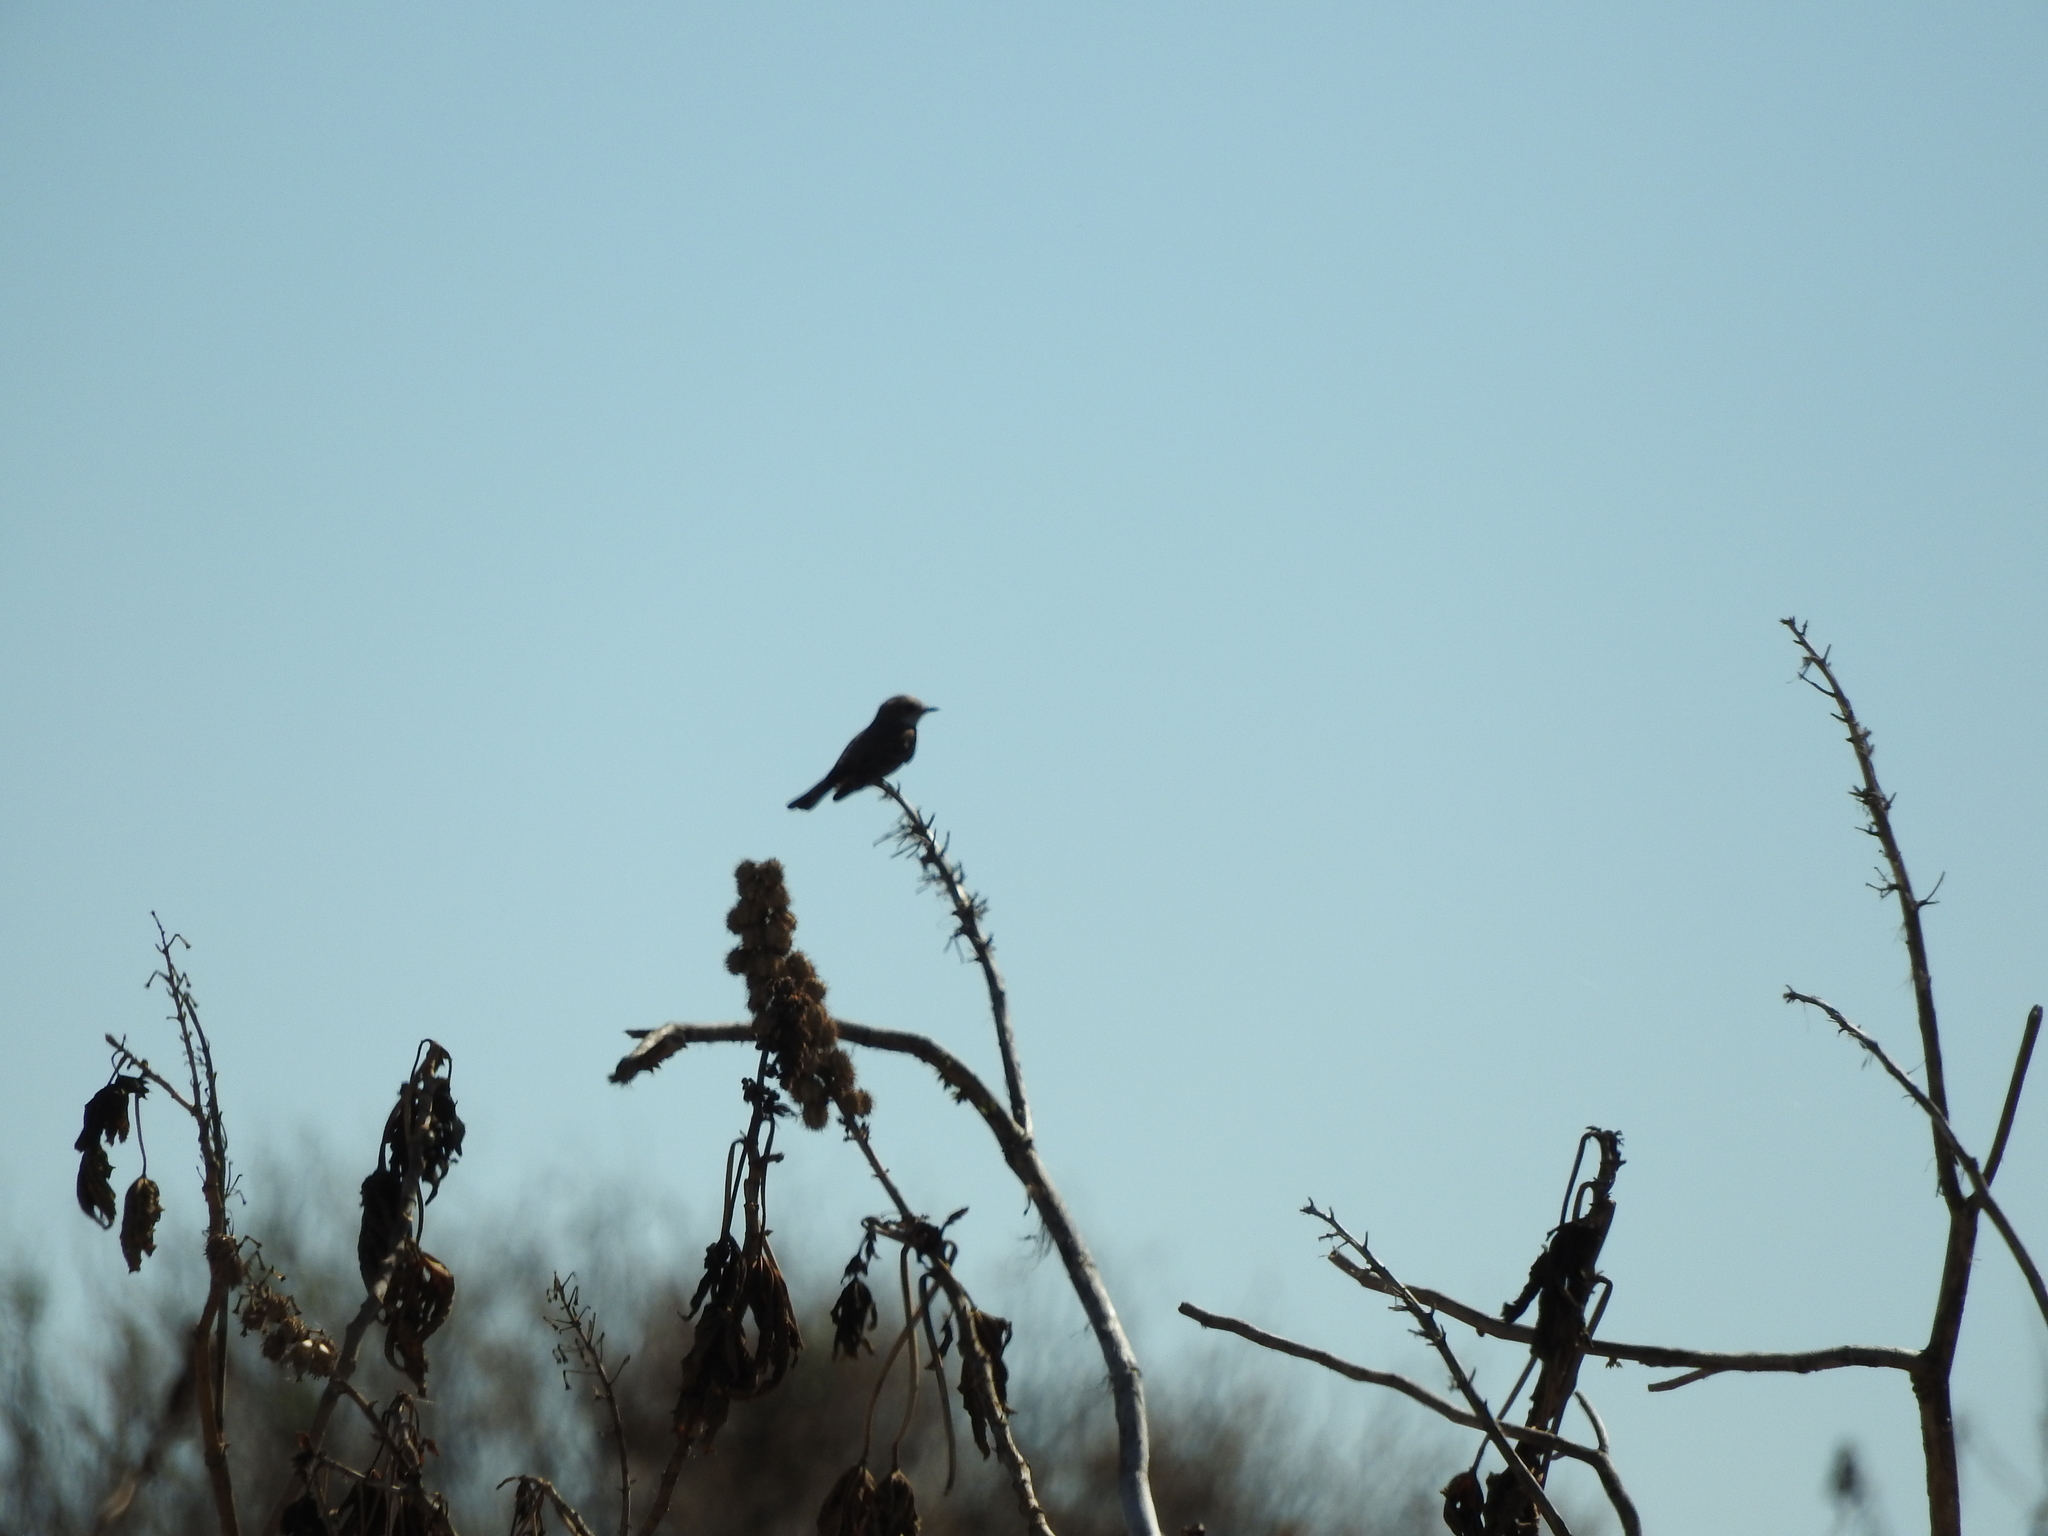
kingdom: Animalia
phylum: Chordata
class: Aves
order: Passeriformes
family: Tyrannidae
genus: Pyrocephalus
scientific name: Pyrocephalus rubinus
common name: Vermilion flycatcher
